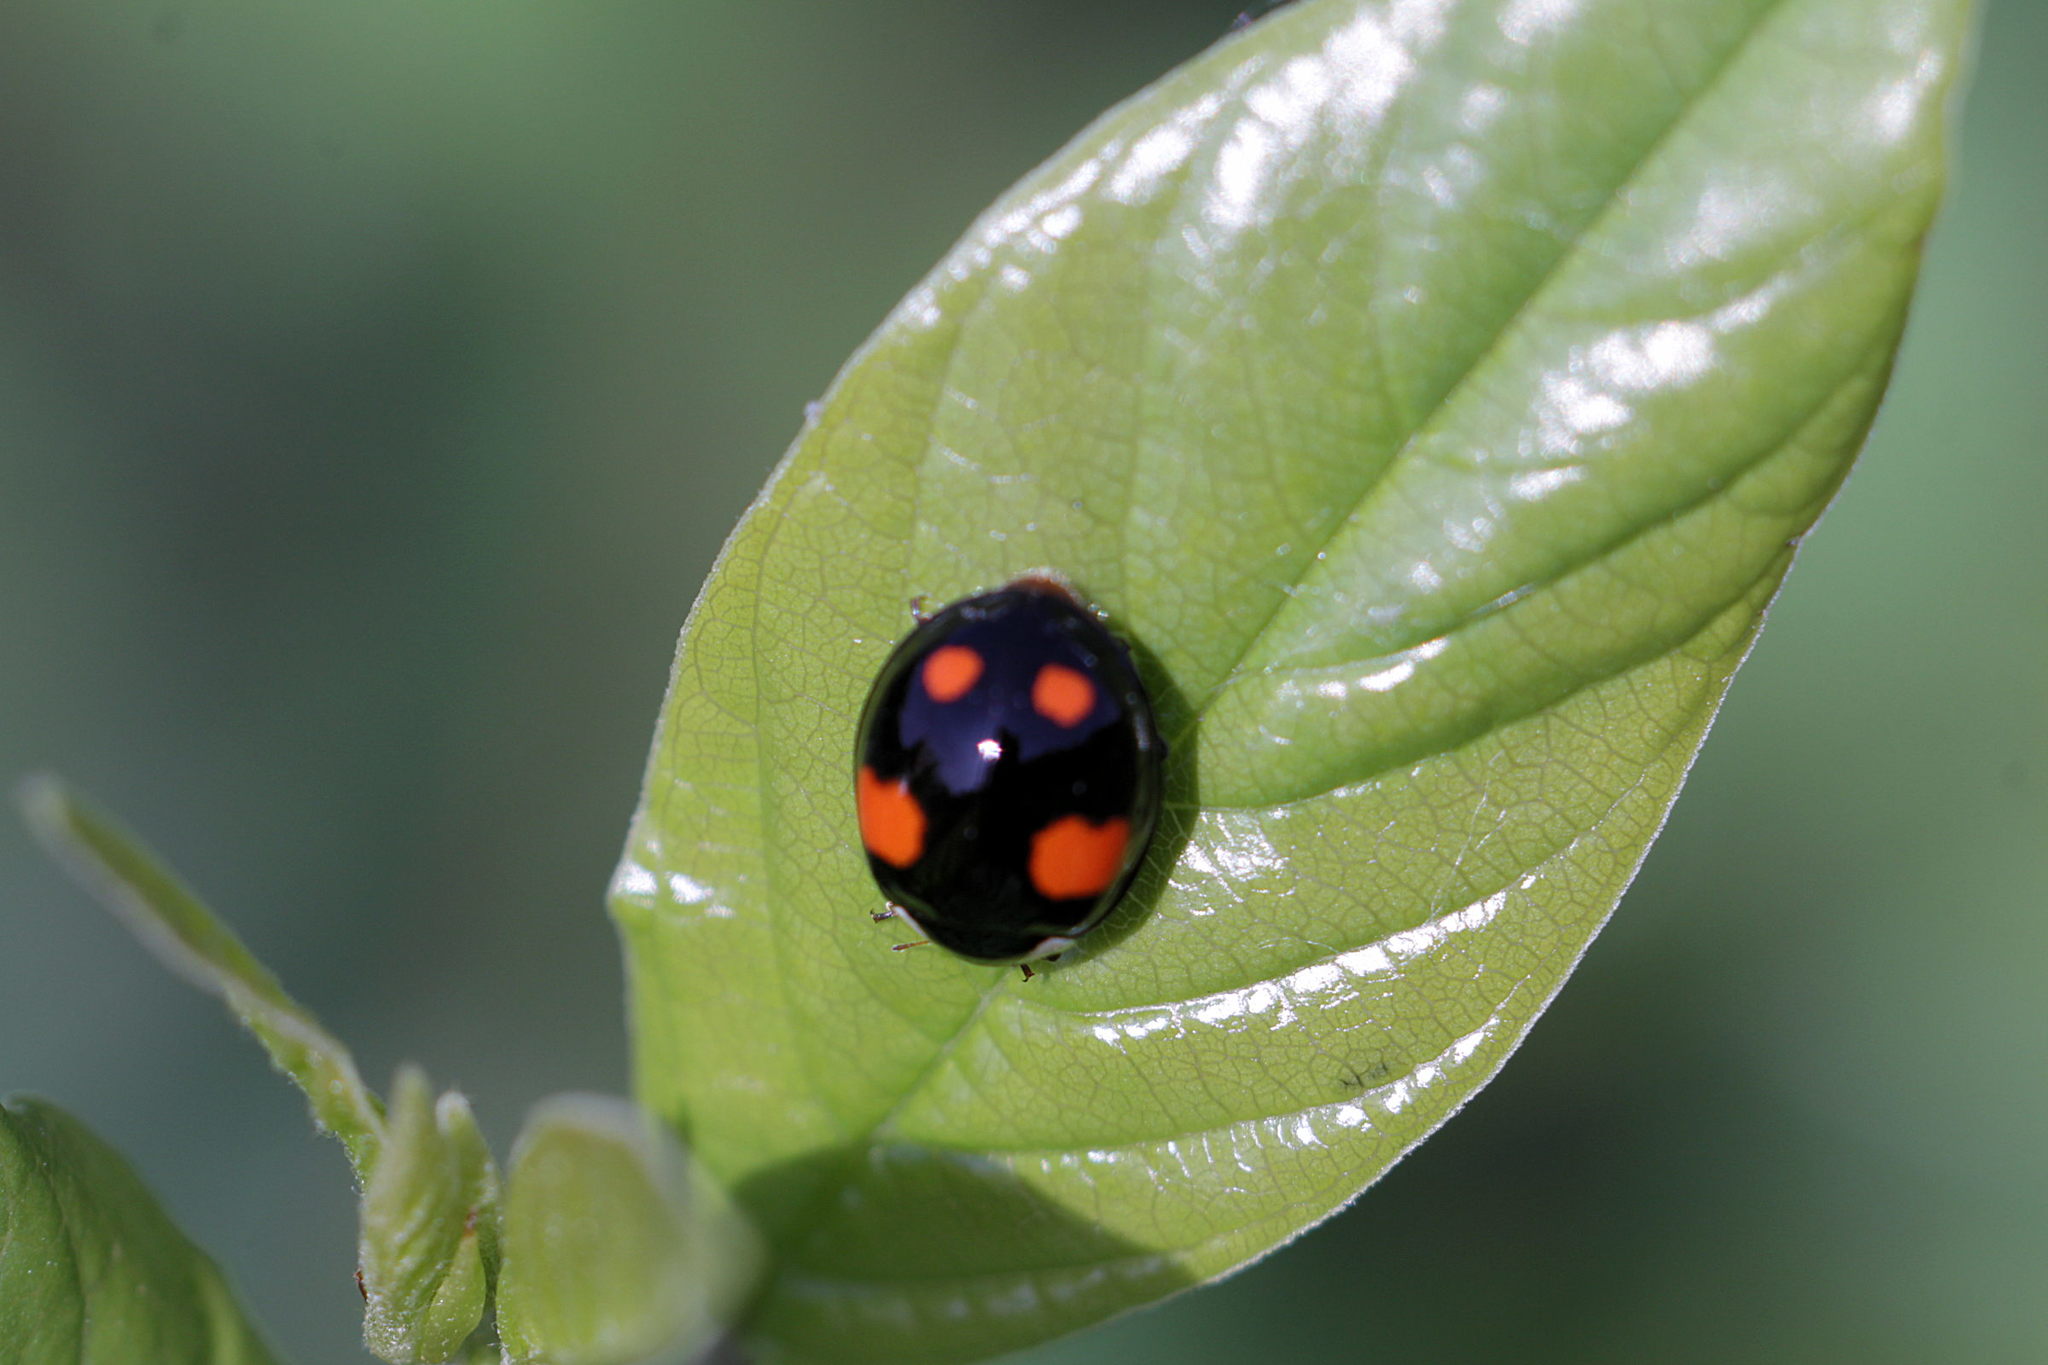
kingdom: Animalia
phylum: Arthropoda
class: Insecta
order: Coleoptera
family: Coccinellidae
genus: Harmonia
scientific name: Harmonia axyridis
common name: Harlequin ladybird
